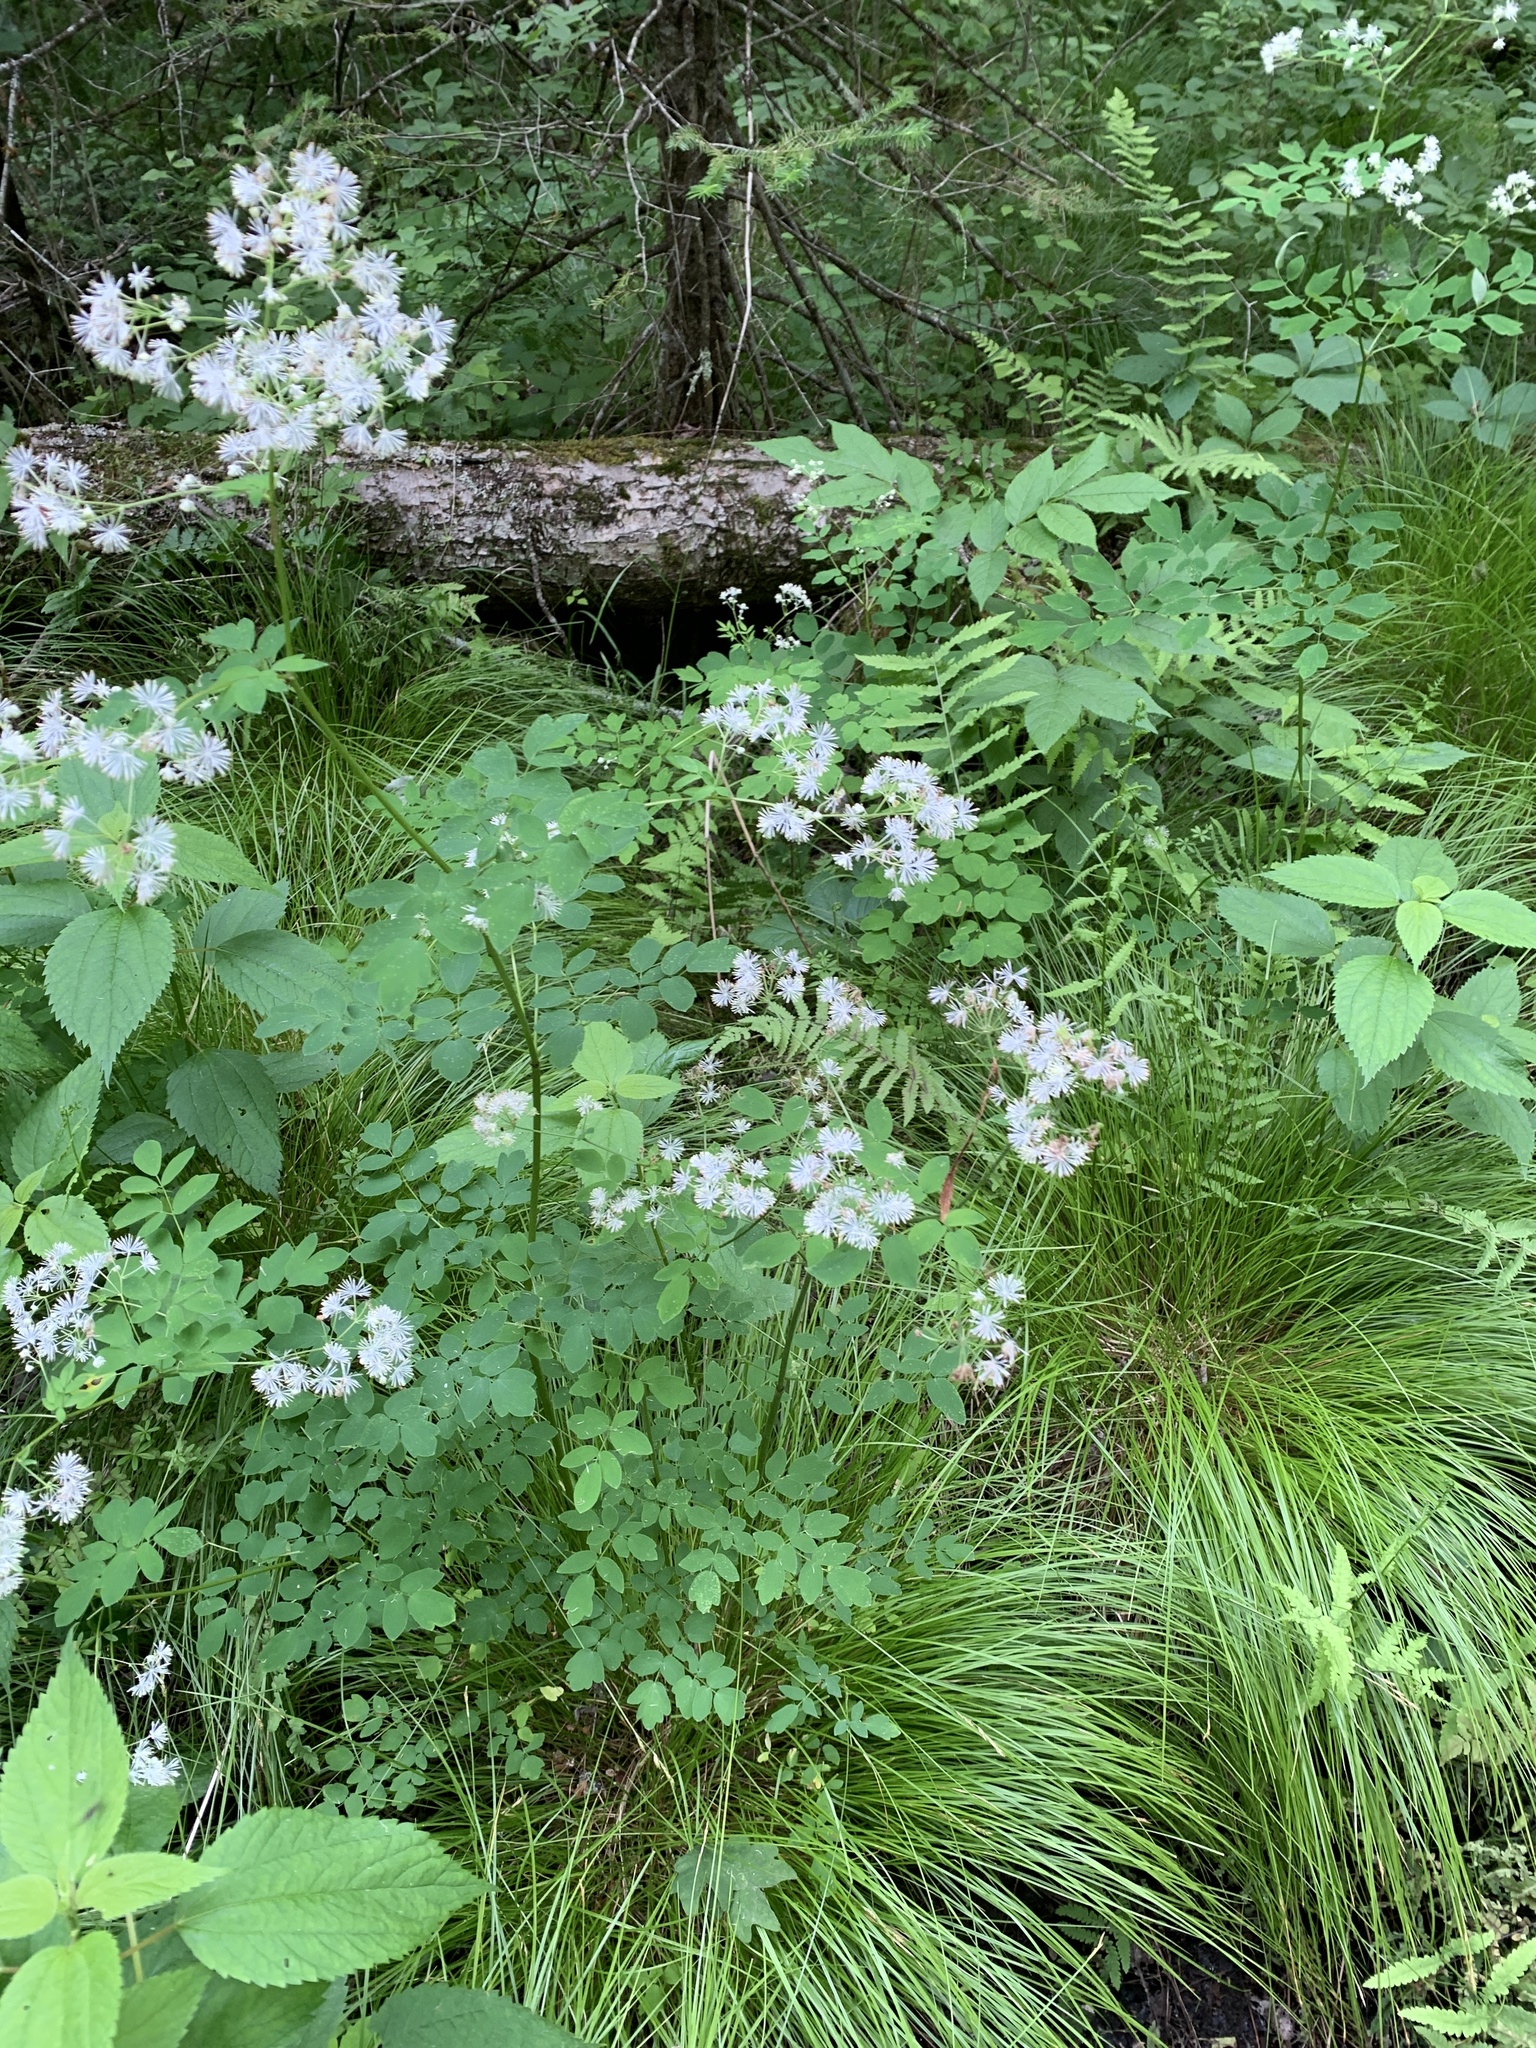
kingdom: Plantae
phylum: Tracheophyta
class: Magnoliopsida
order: Ranunculales
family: Ranunculaceae
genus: Thalictrum
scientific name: Thalictrum pubescens
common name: King-of-the-meadow
